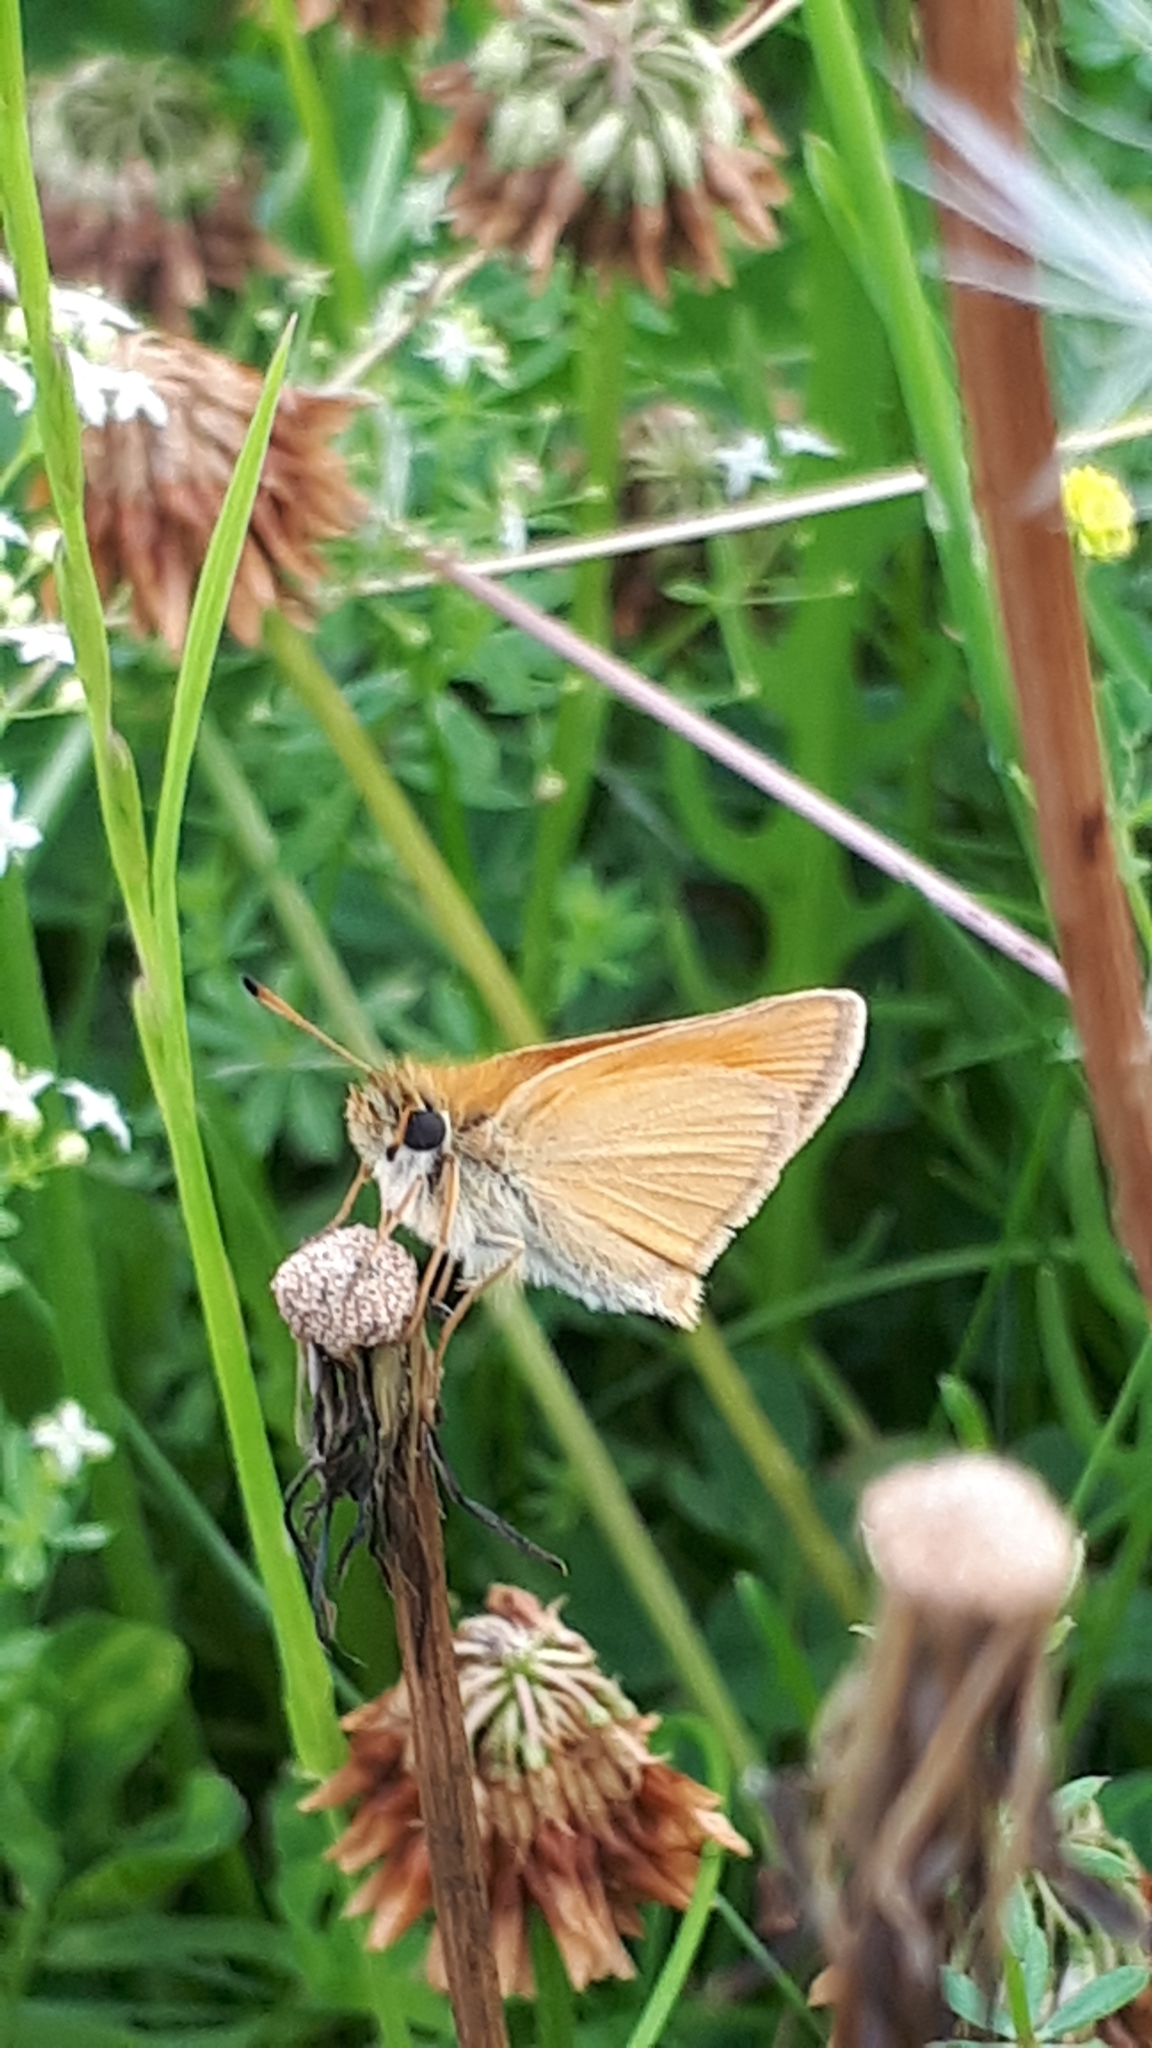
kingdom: Animalia
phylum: Arthropoda
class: Insecta
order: Lepidoptera
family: Hesperiidae
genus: Thymelicus
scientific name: Thymelicus lineola
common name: Essex skipper
